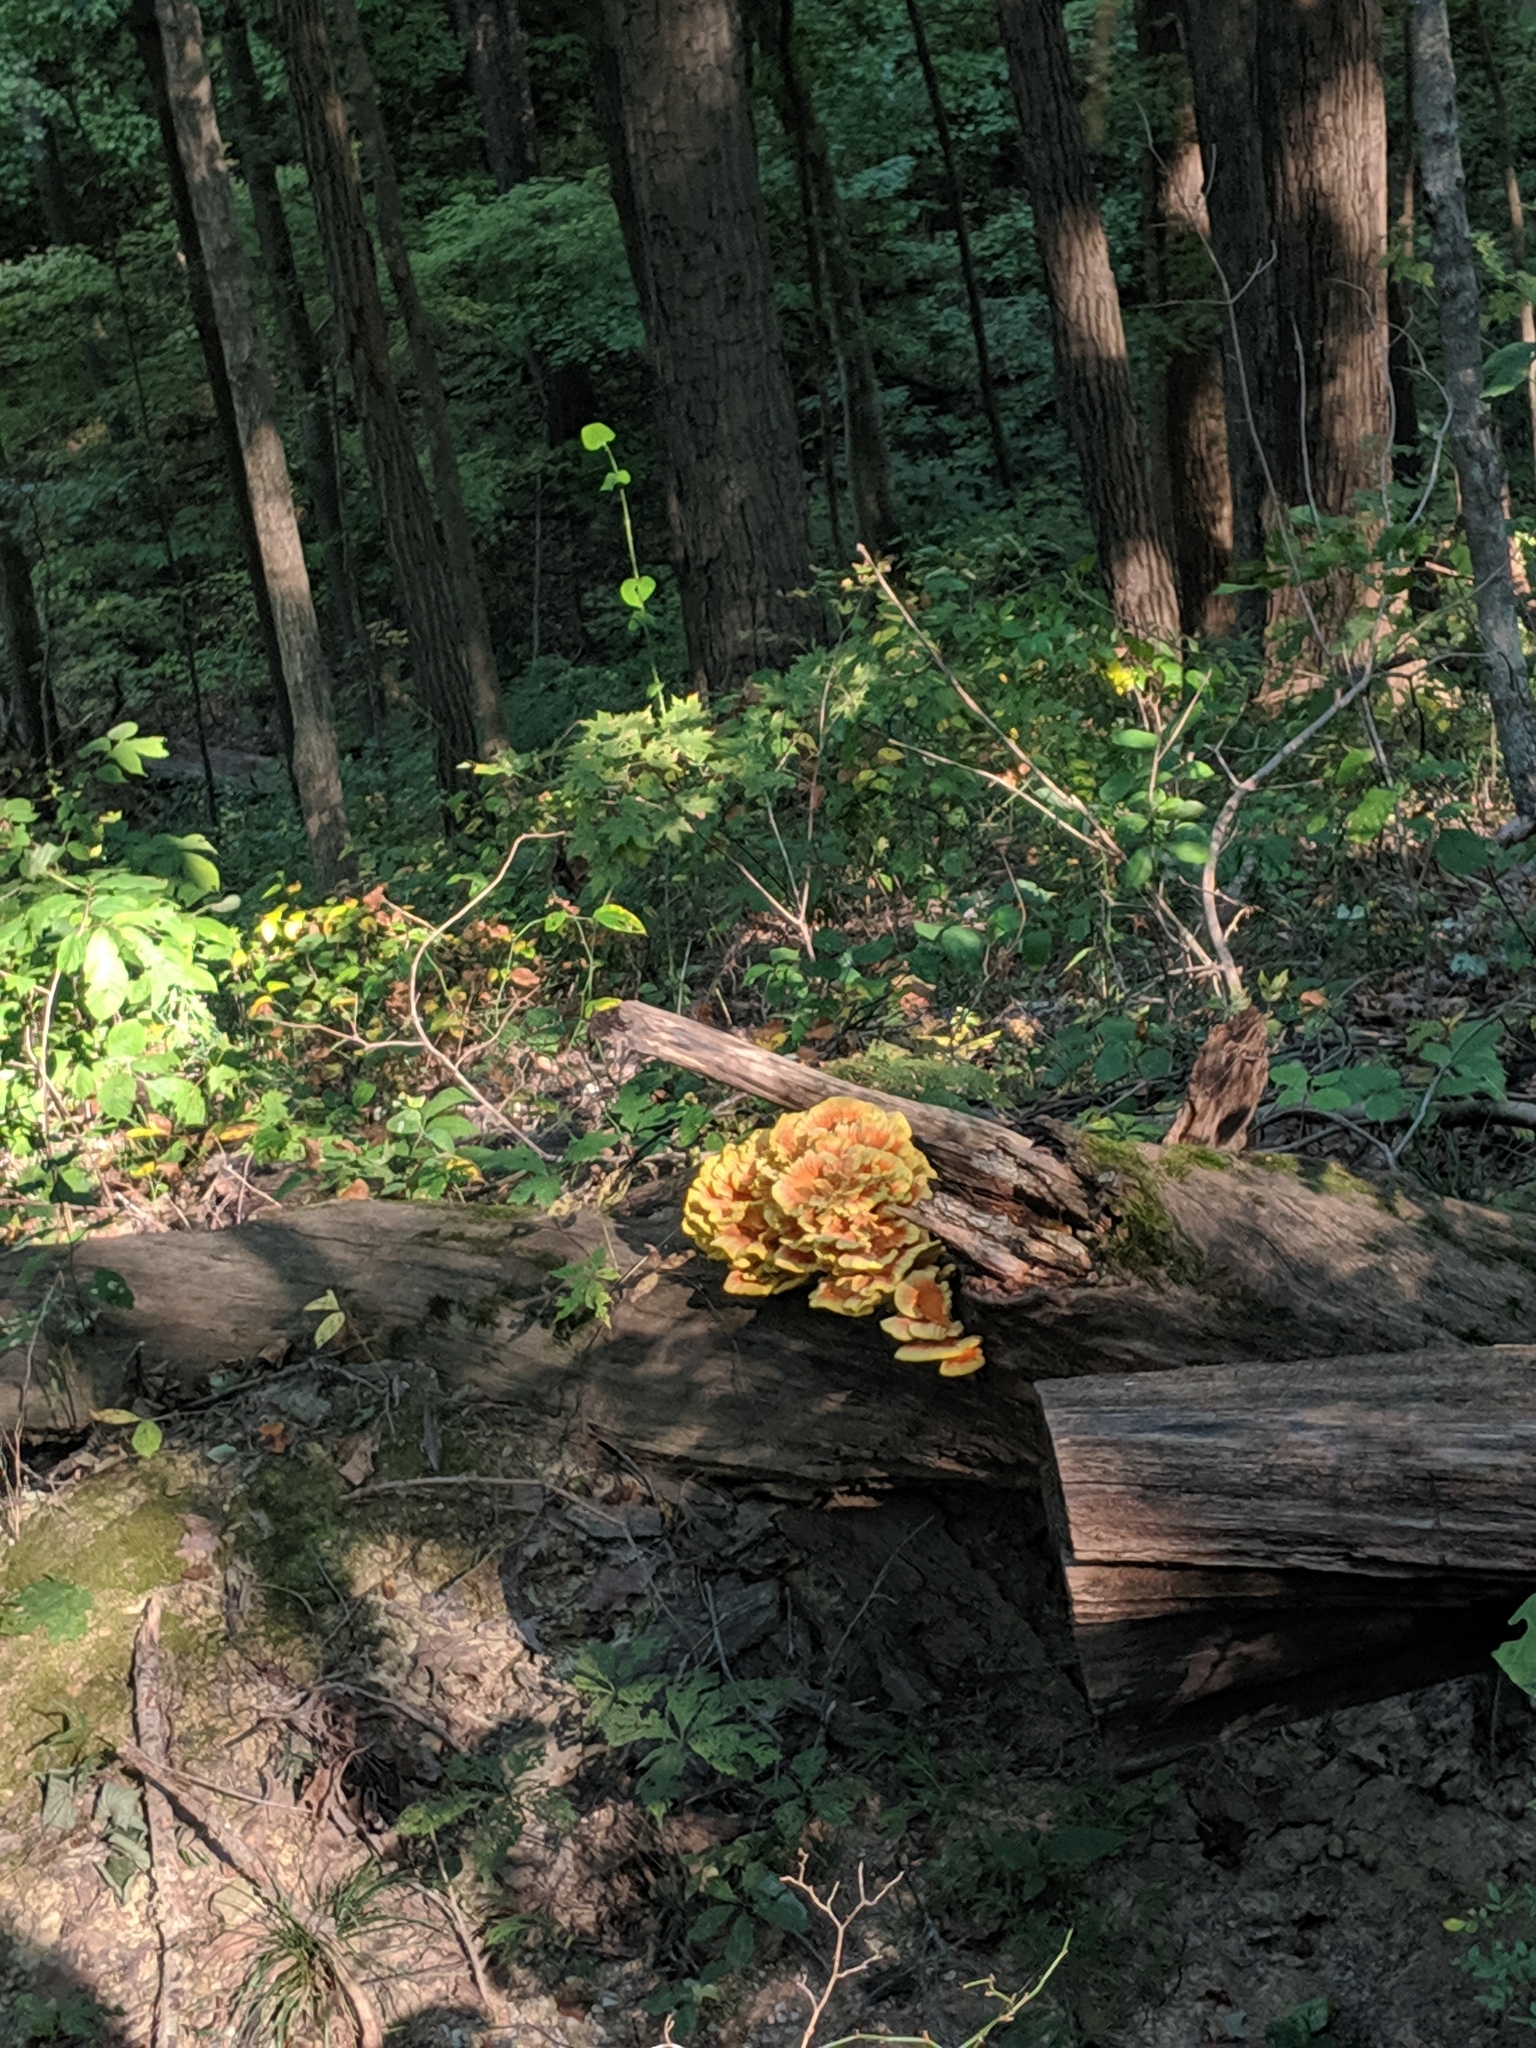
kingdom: Fungi
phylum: Basidiomycota
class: Agaricomycetes
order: Polyporales
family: Laetiporaceae
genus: Laetiporus
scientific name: Laetiporus sulphureus
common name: Chicken of the woods
